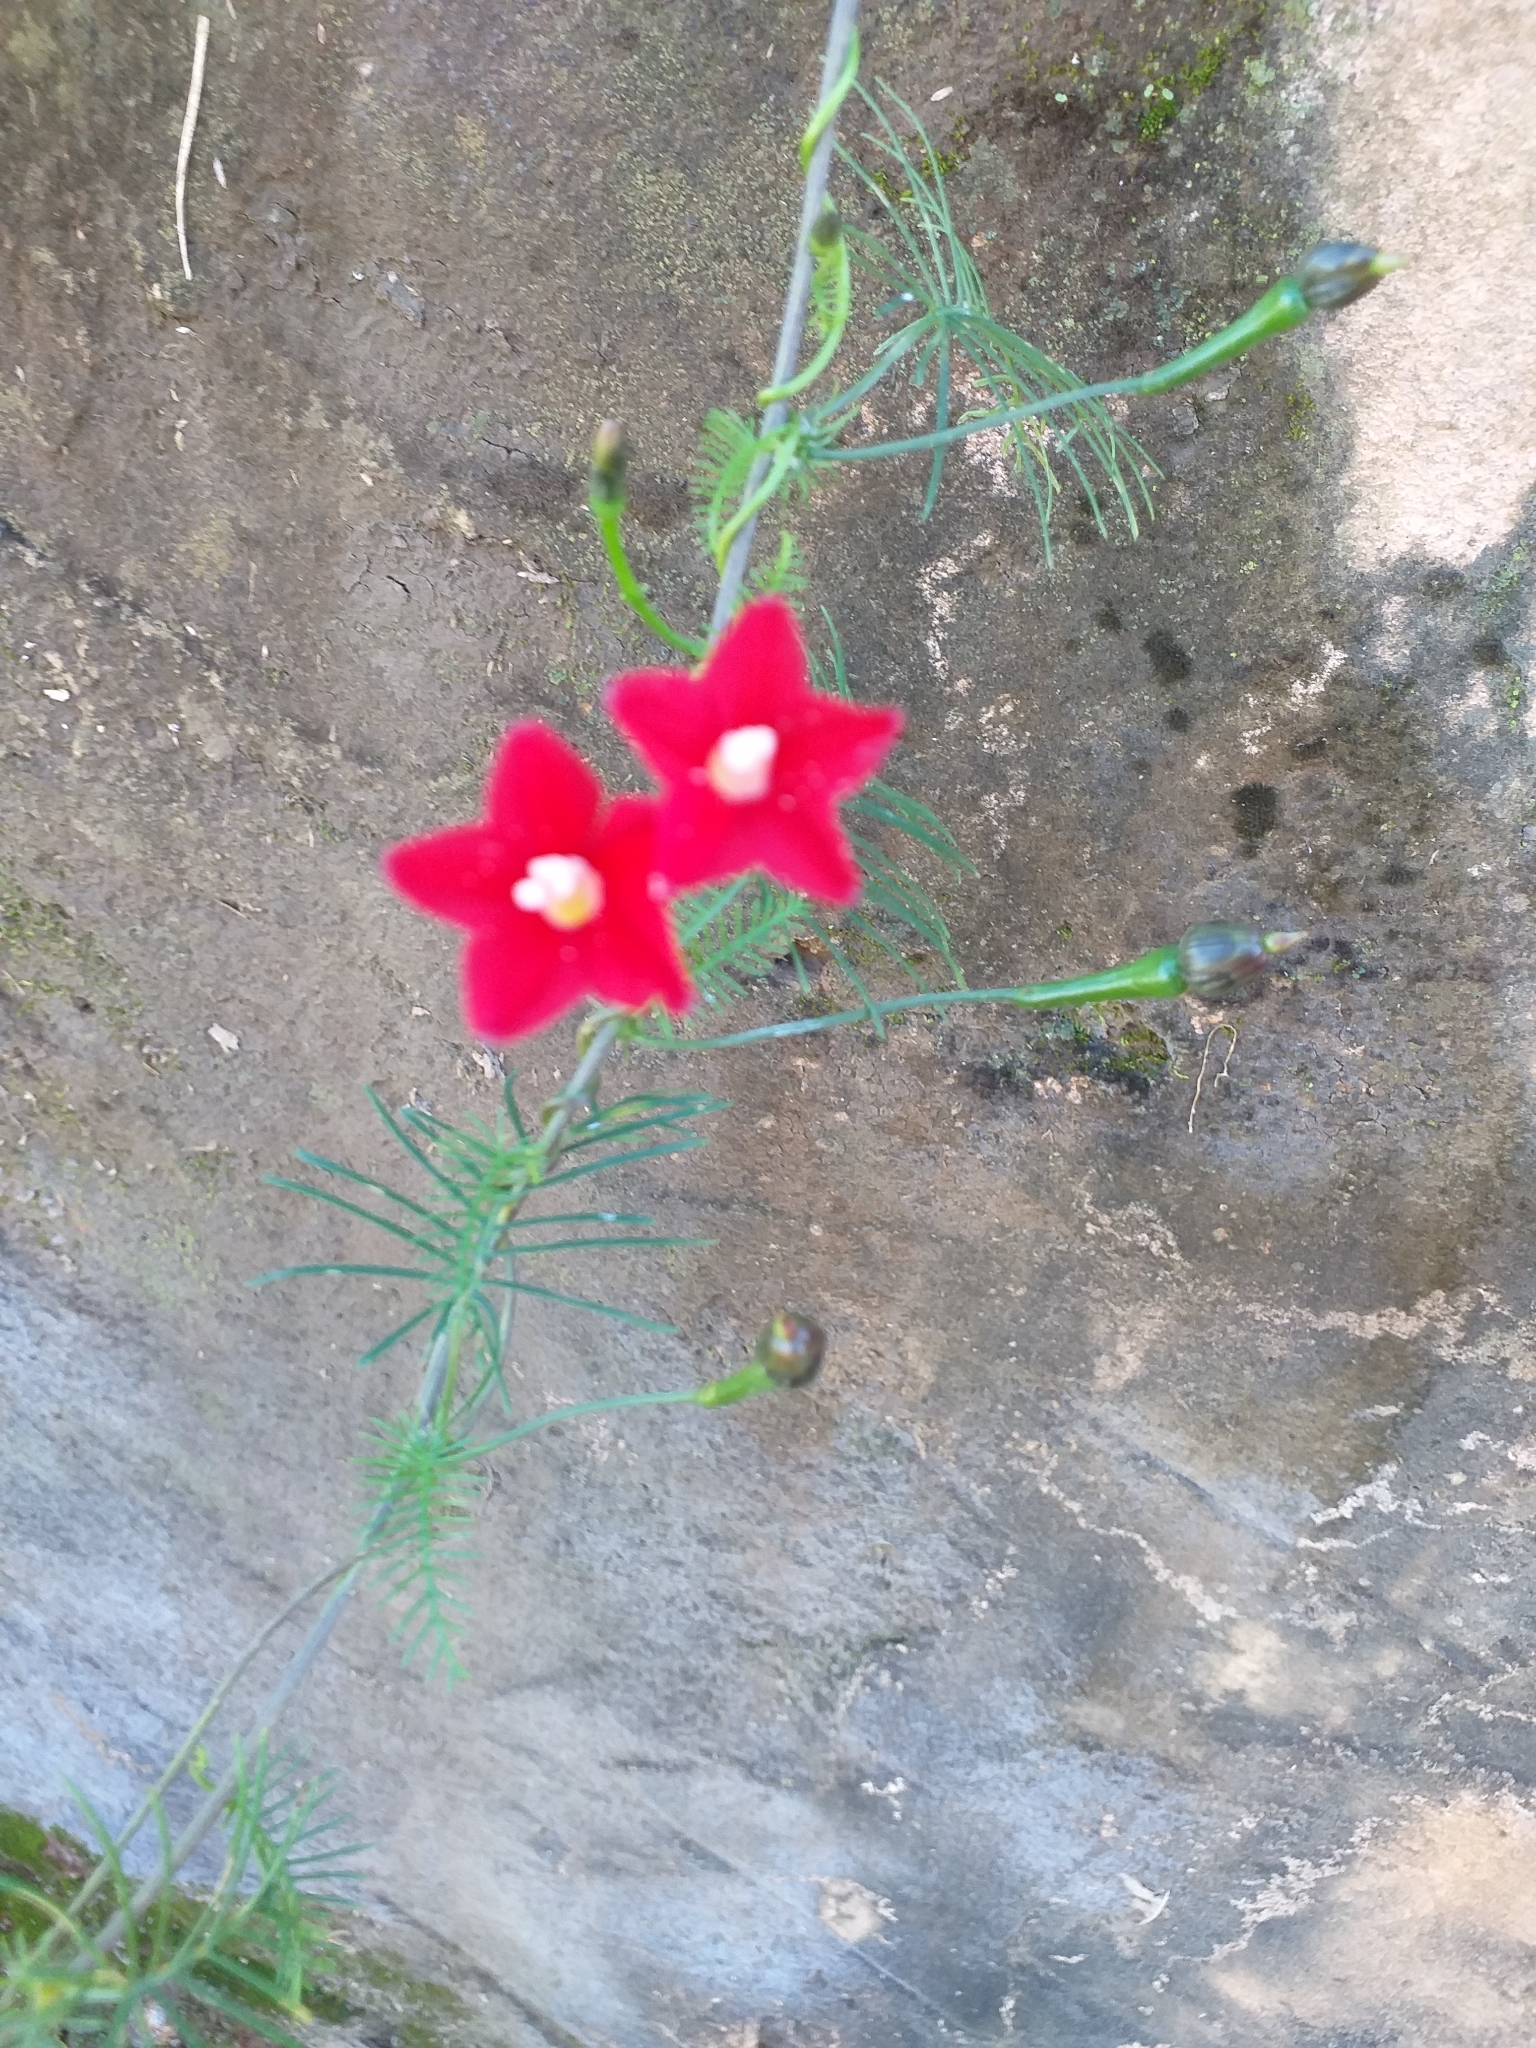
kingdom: Plantae
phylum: Tracheophyta
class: Magnoliopsida
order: Solanales
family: Convolvulaceae
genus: Ipomoea
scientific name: Ipomoea quamoclit
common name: Cypress vine
